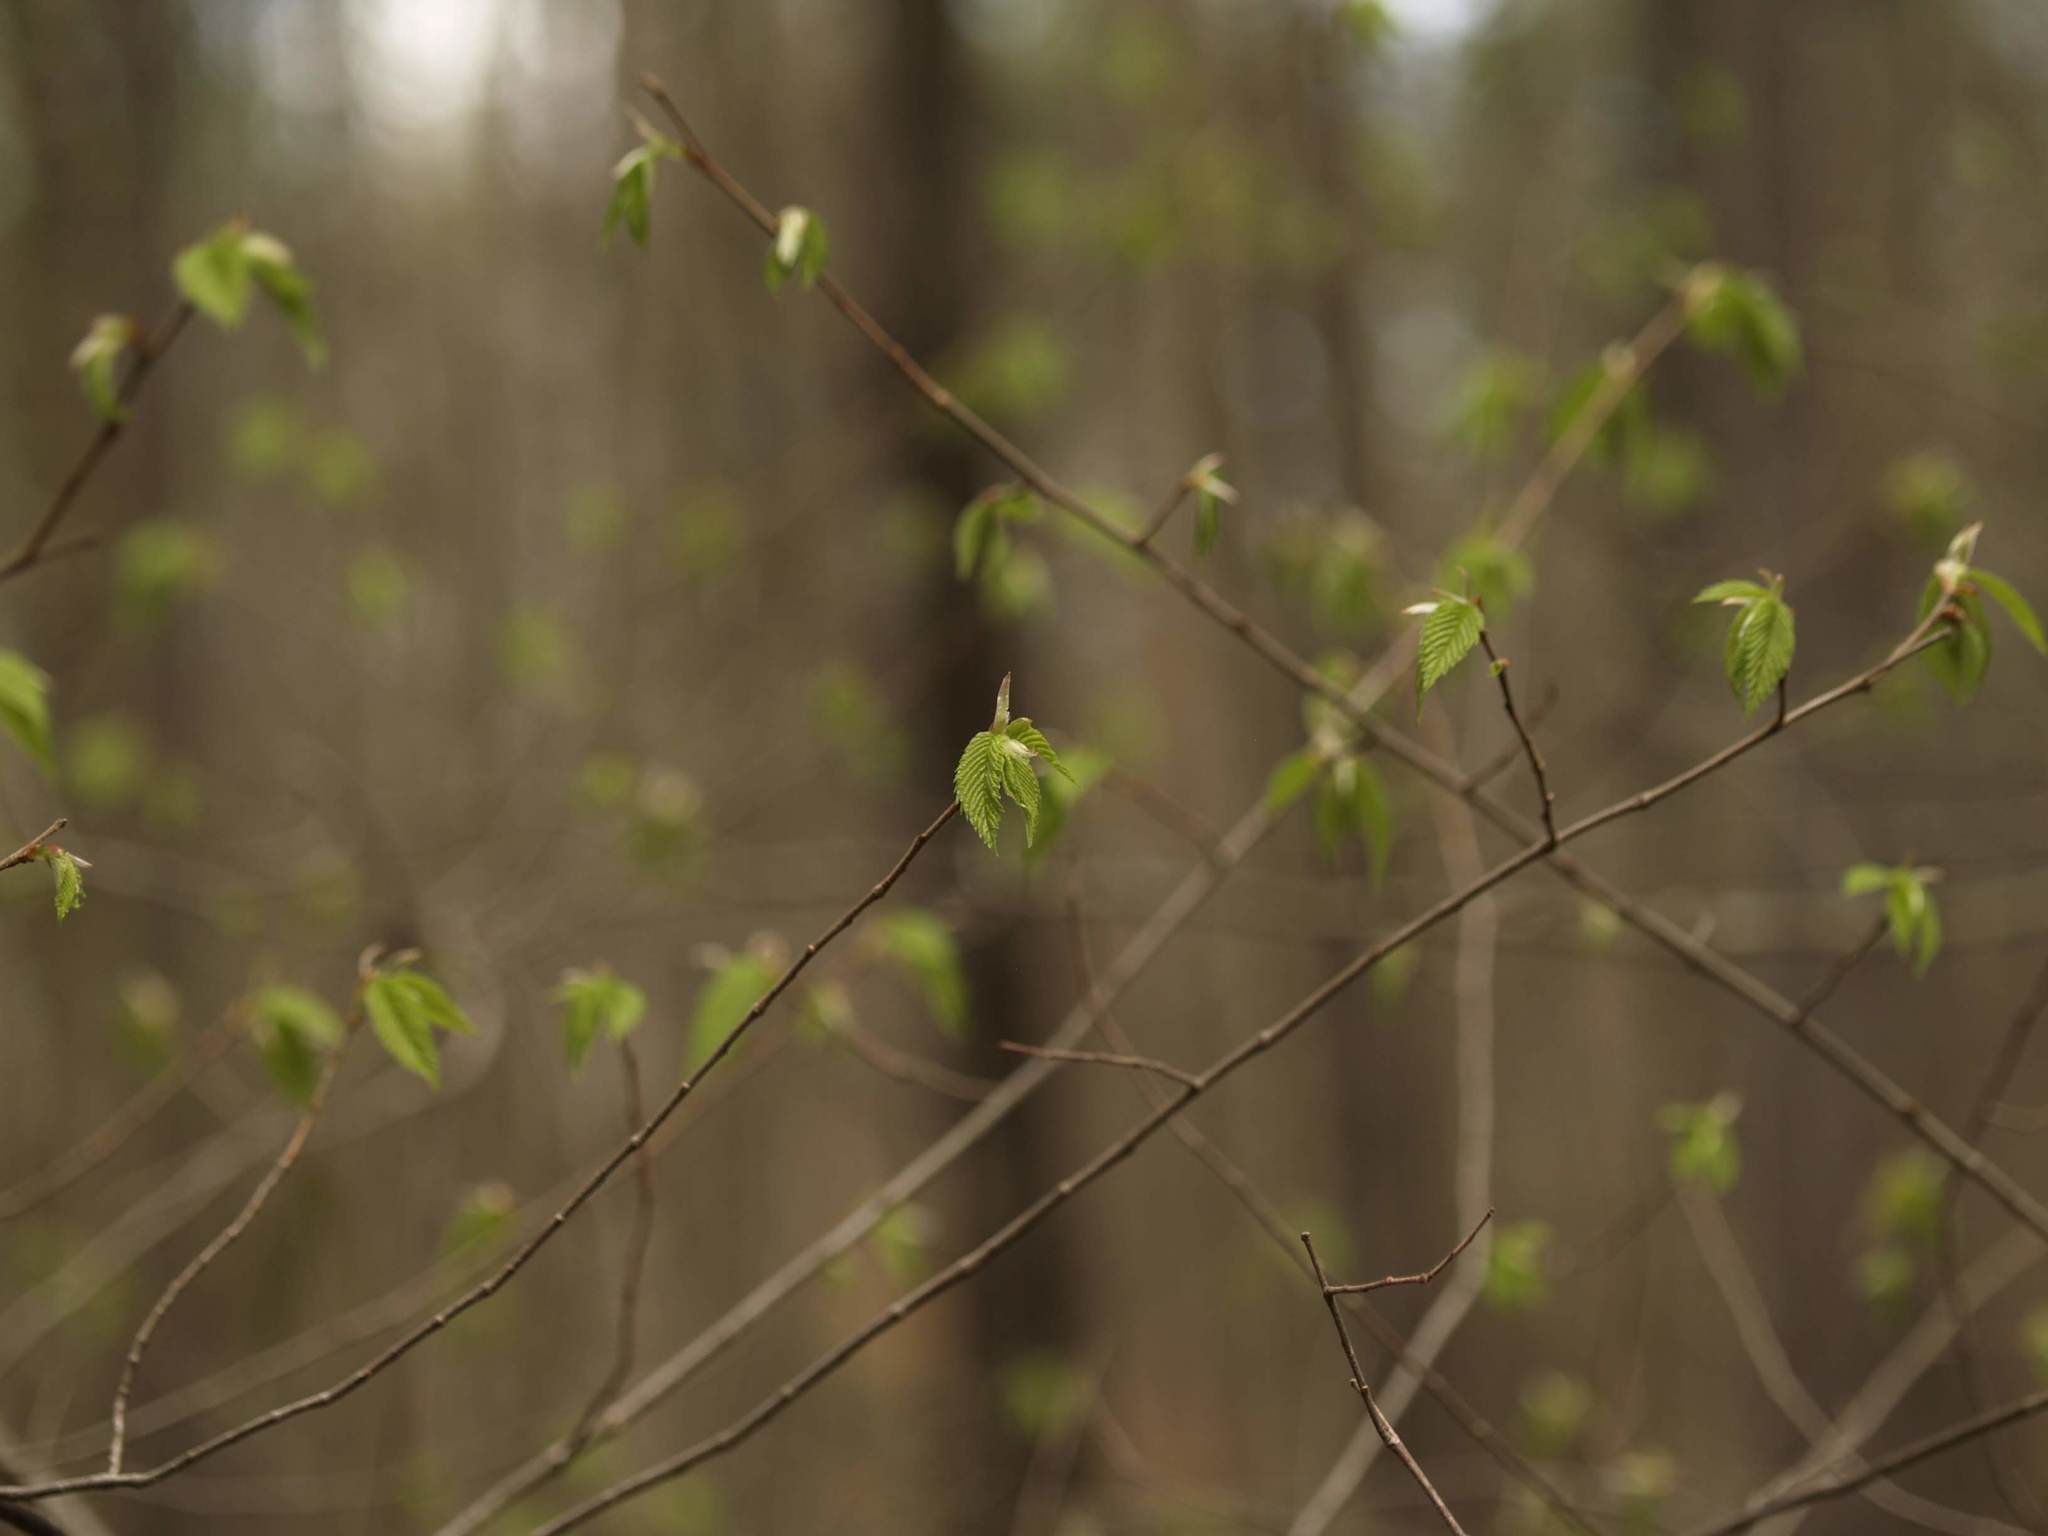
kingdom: Plantae
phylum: Tracheophyta
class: Magnoliopsida
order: Fagales
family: Fagaceae
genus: Fagus
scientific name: Fagus grandifolia
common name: American beech
